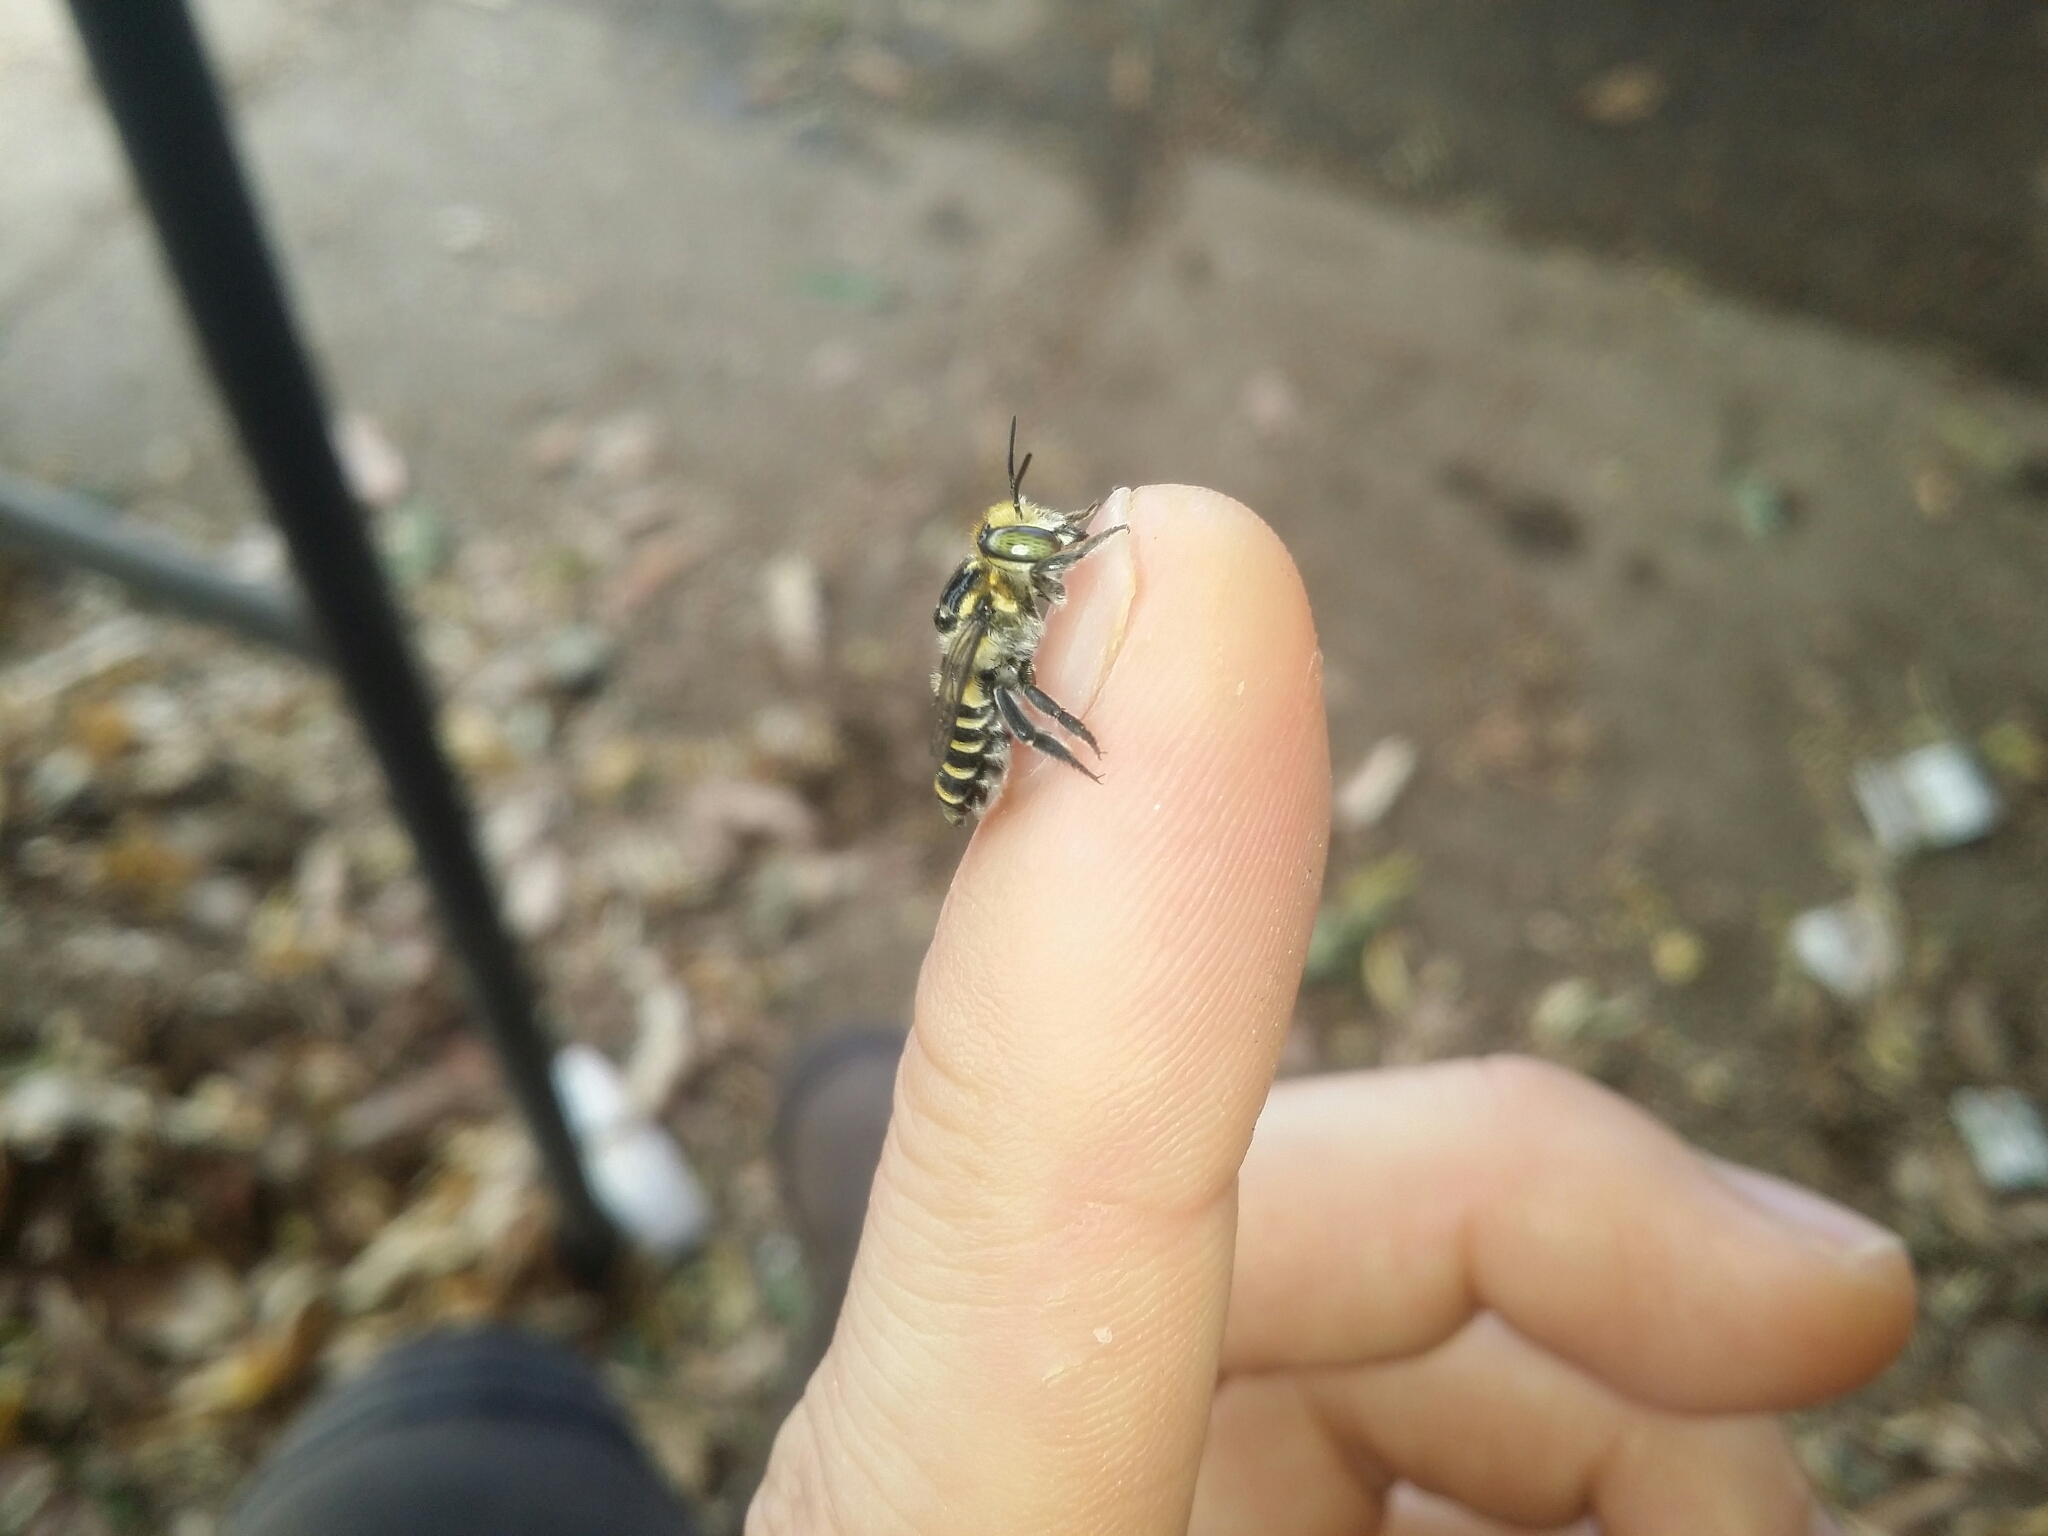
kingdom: Animalia
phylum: Arthropoda
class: Insecta
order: Hymenoptera
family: Megachilidae
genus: Megachile
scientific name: Megachile macularis
